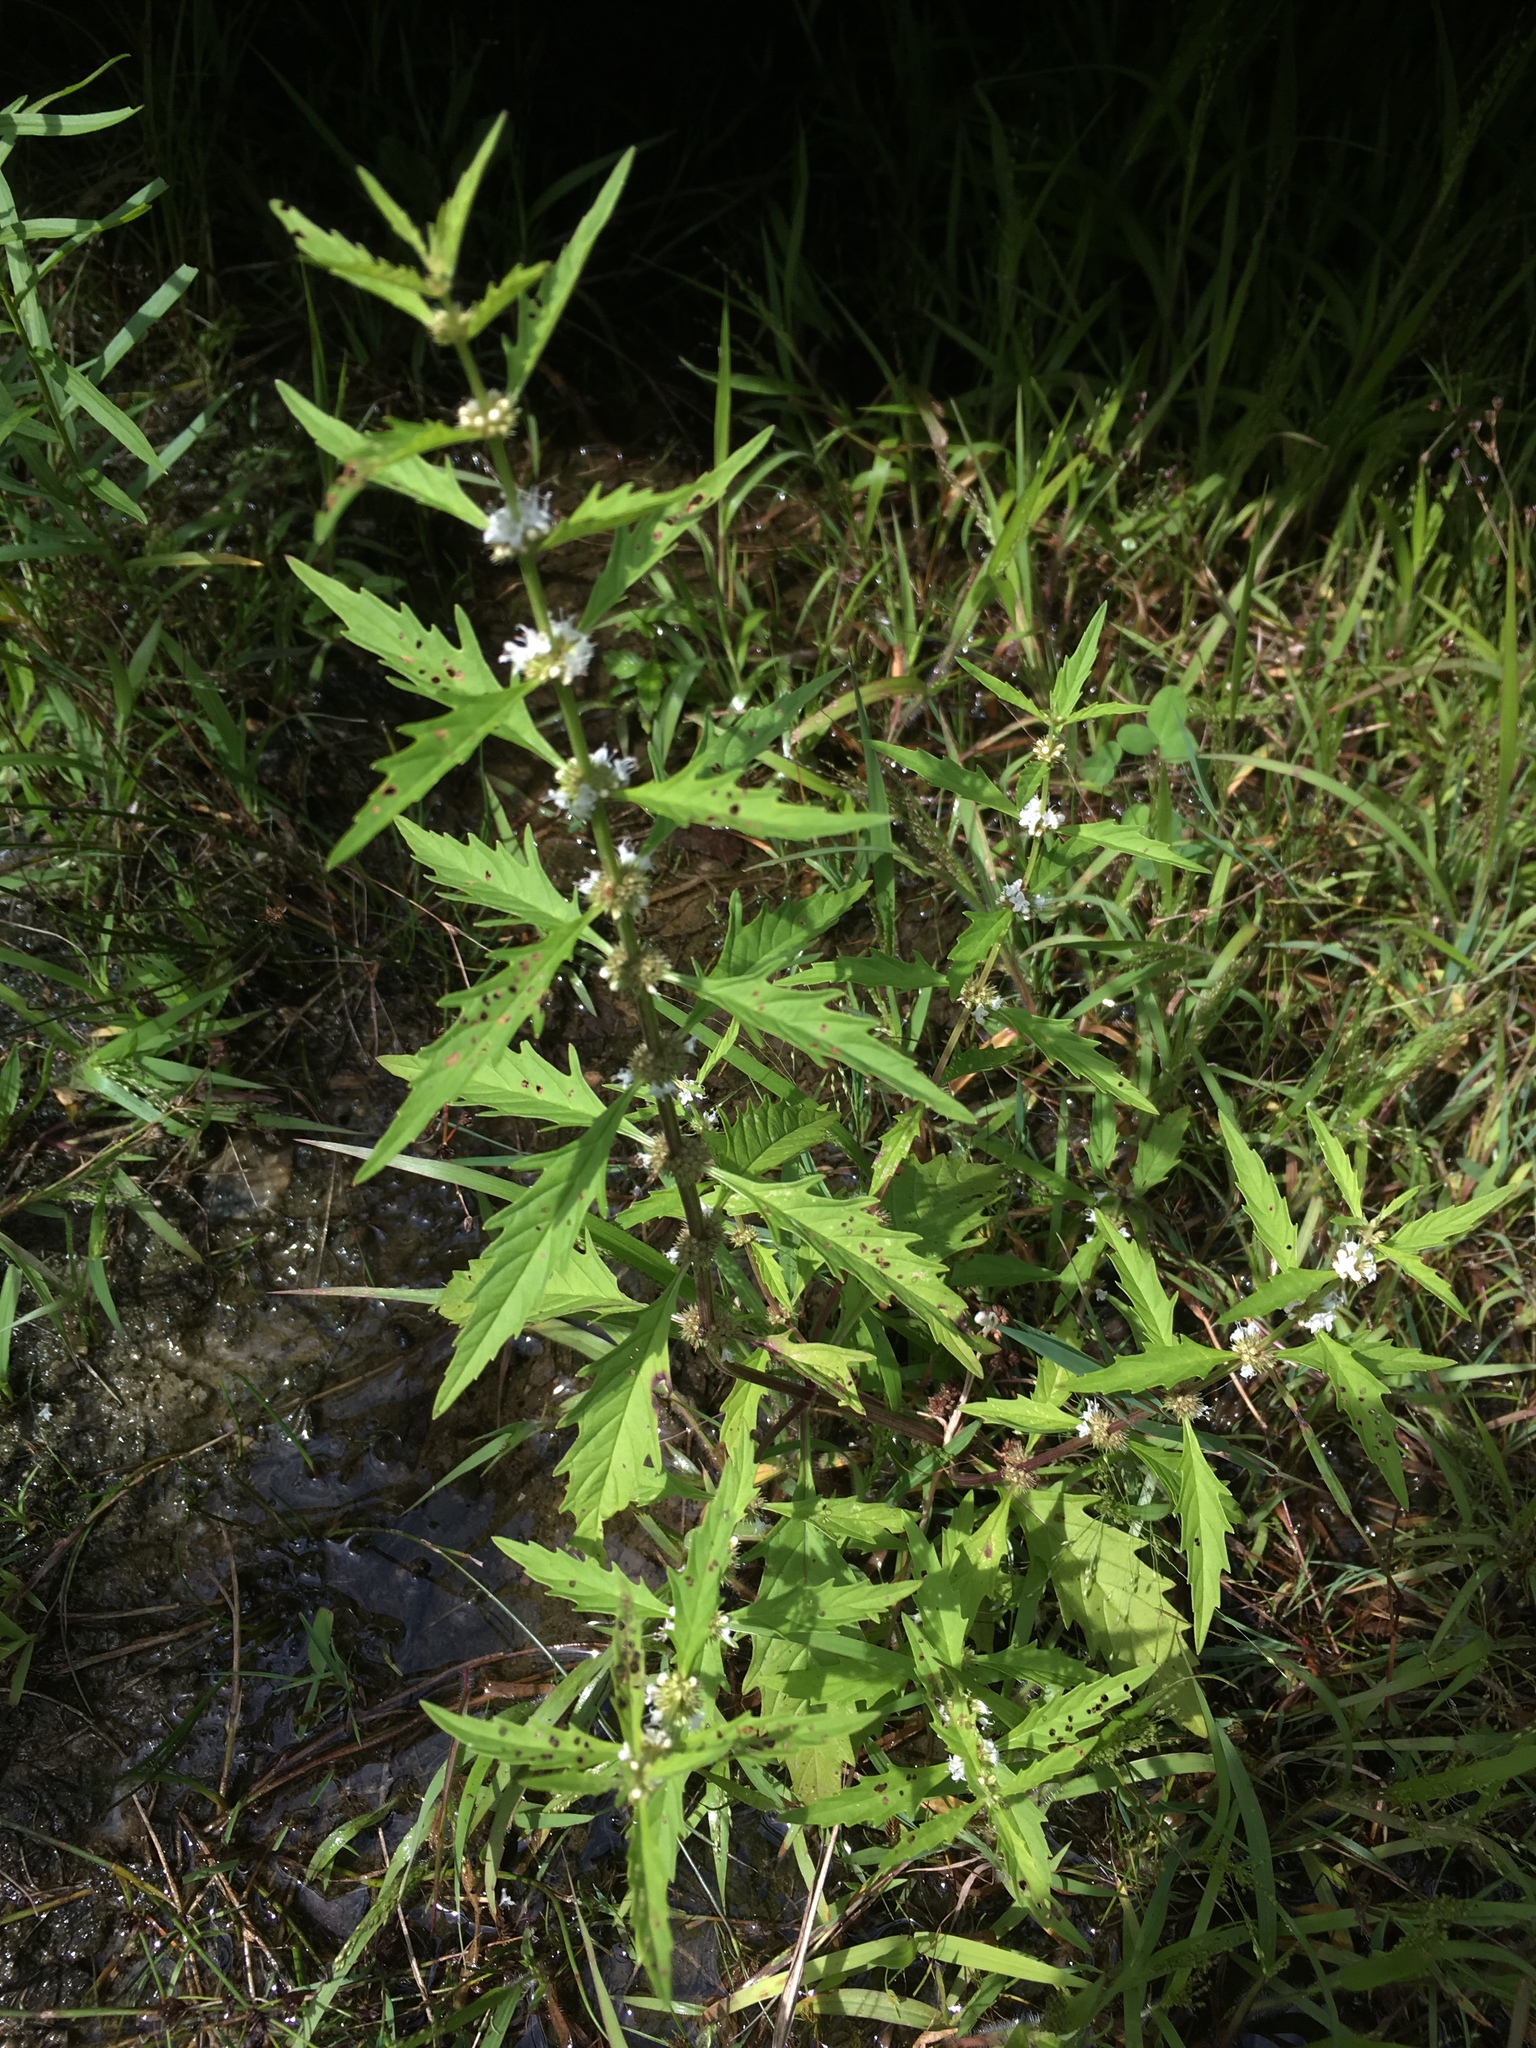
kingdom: Plantae
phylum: Tracheophyta
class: Magnoliopsida
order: Lamiales
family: Lamiaceae
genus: Lycopus
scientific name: Lycopus americanus
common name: American bugleweed
